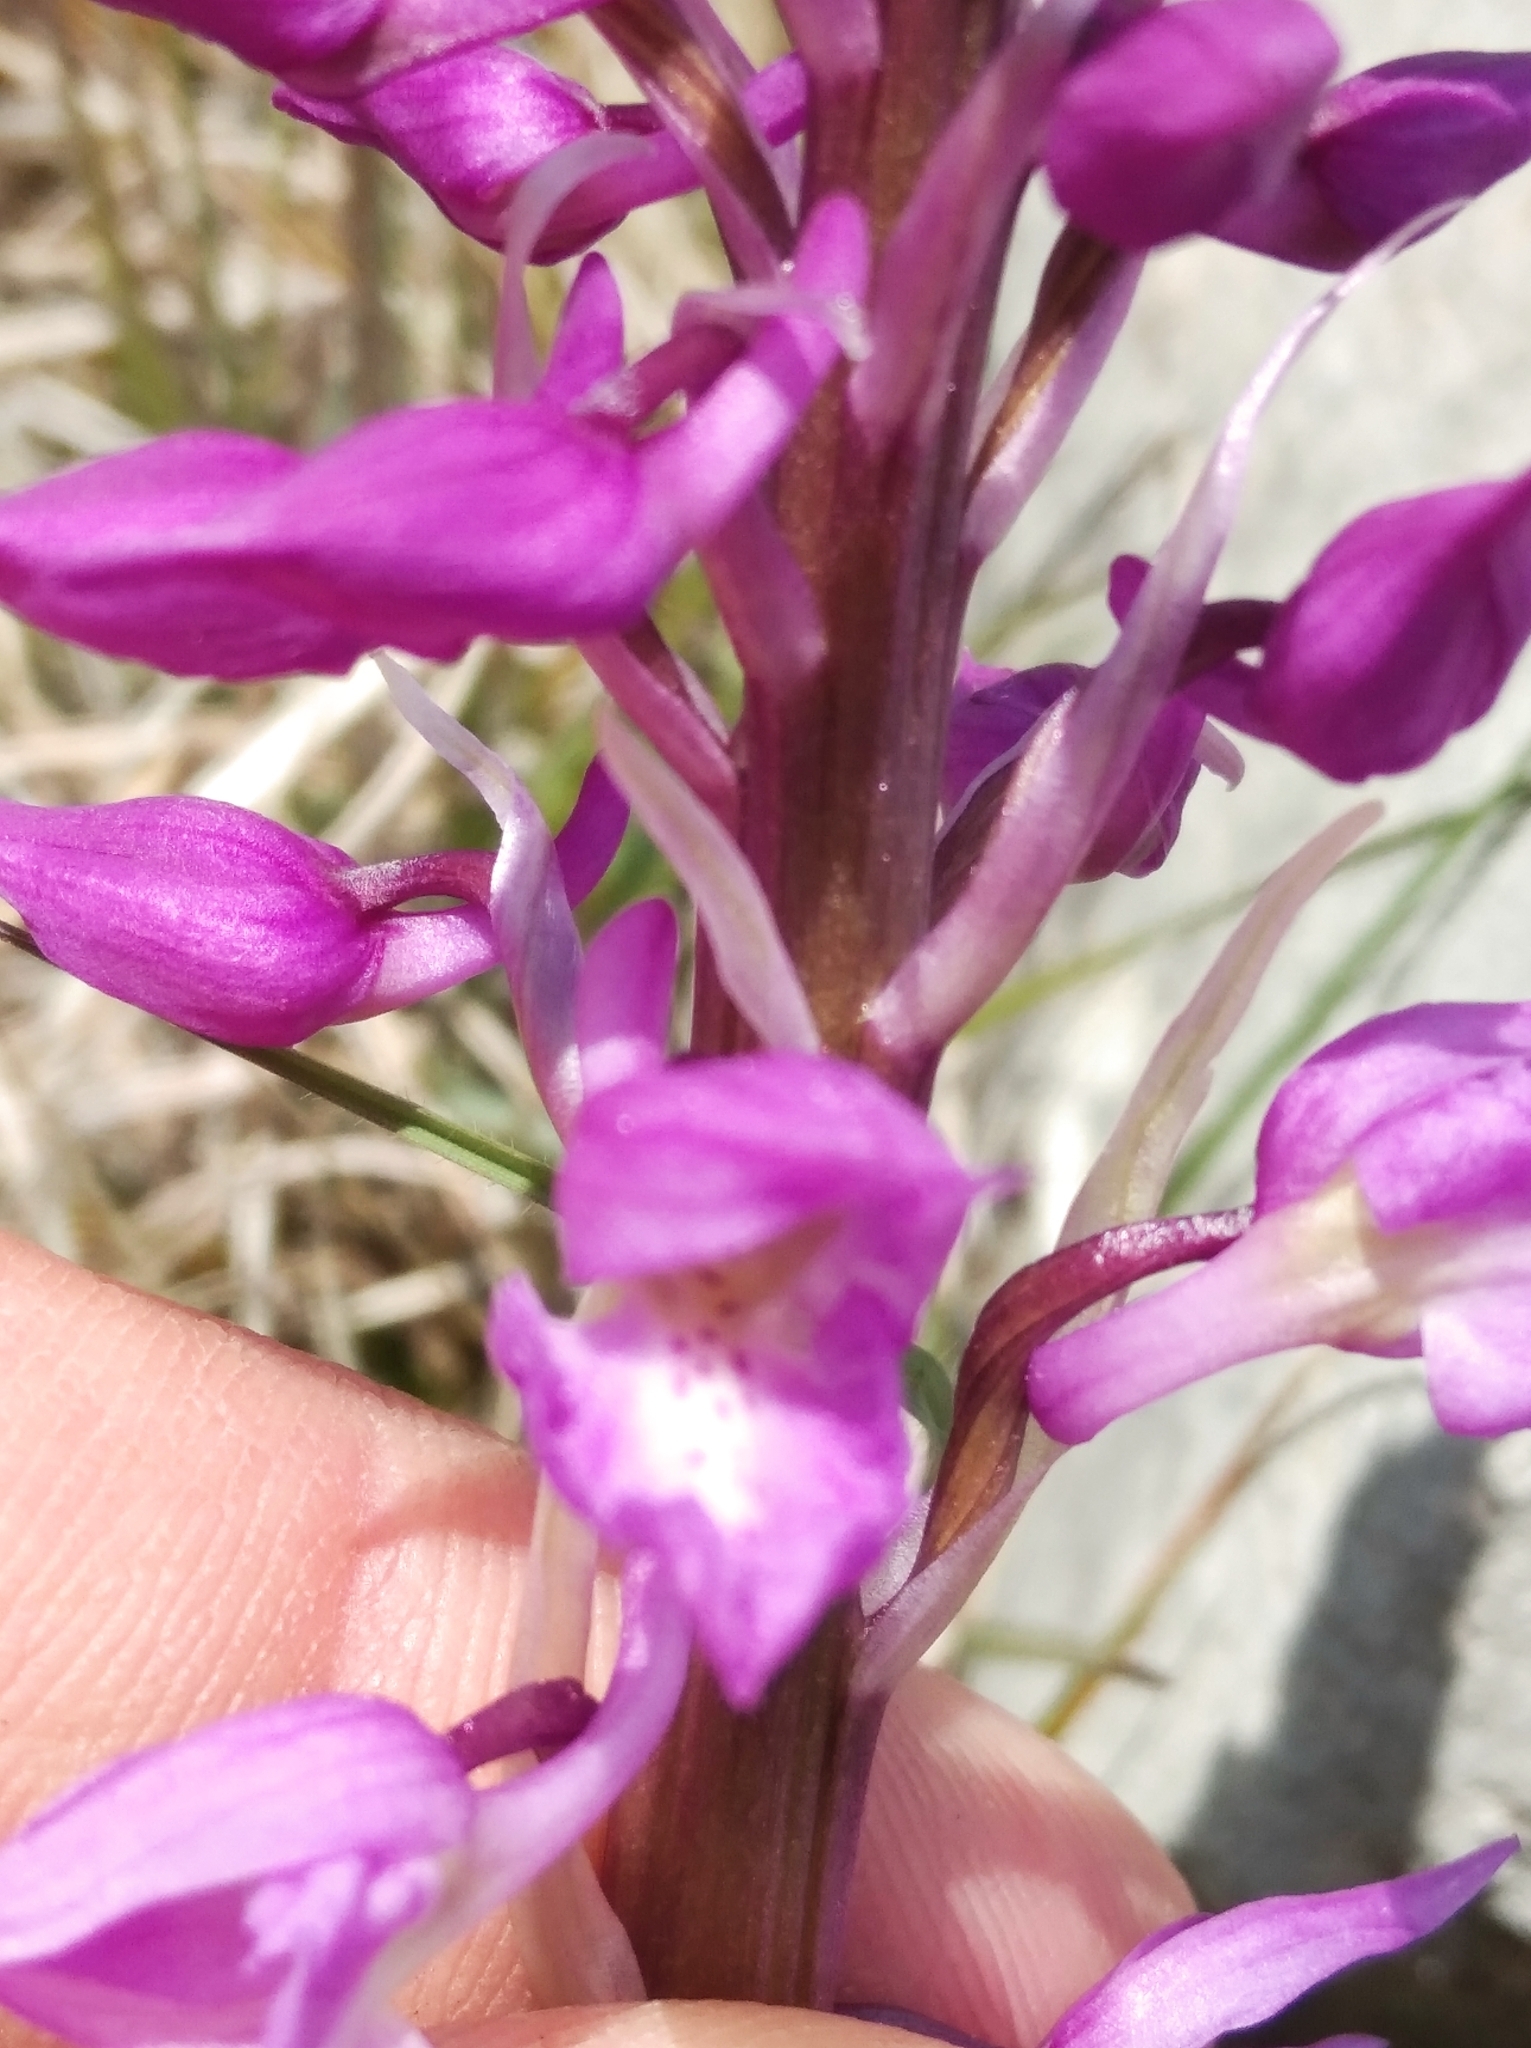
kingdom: Plantae
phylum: Tracheophyta
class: Liliopsida
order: Asparagales
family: Orchidaceae
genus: Orchis
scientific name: Orchis mascula
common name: Early-purple orchid
